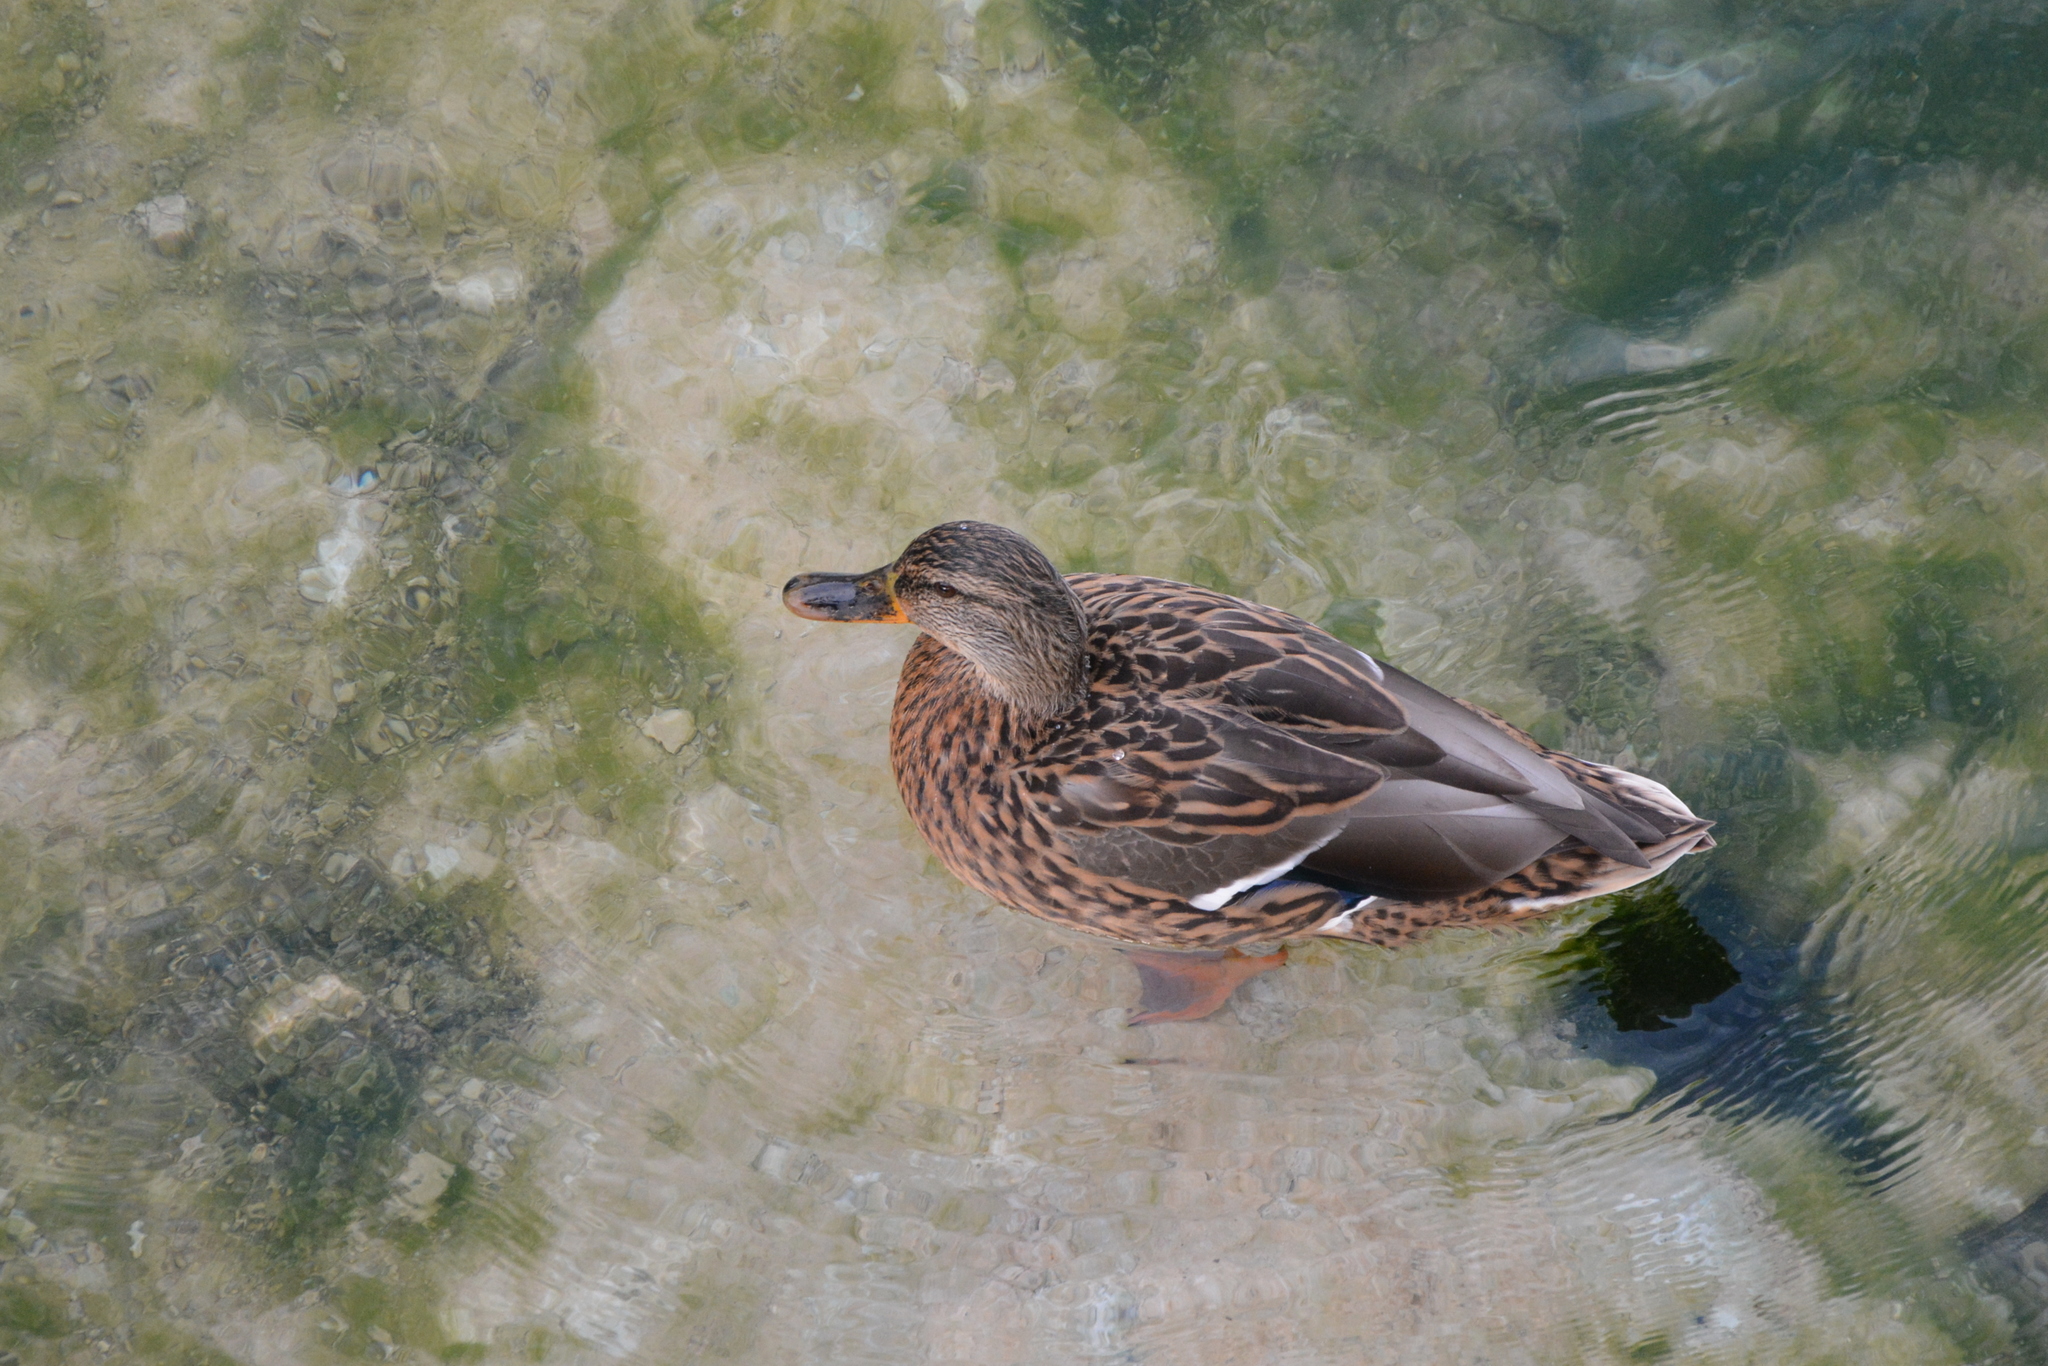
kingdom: Animalia
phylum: Chordata
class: Aves
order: Anseriformes
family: Anatidae
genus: Anas
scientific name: Anas platyrhynchos
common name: Mallard
